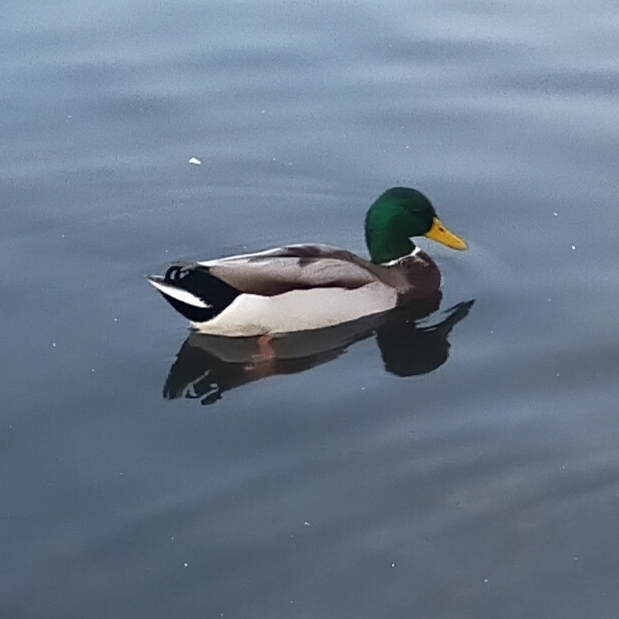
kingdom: Animalia
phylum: Chordata
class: Aves
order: Anseriformes
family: Anatidae
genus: Anas
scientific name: Anas platyrhynchos
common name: Mallard
